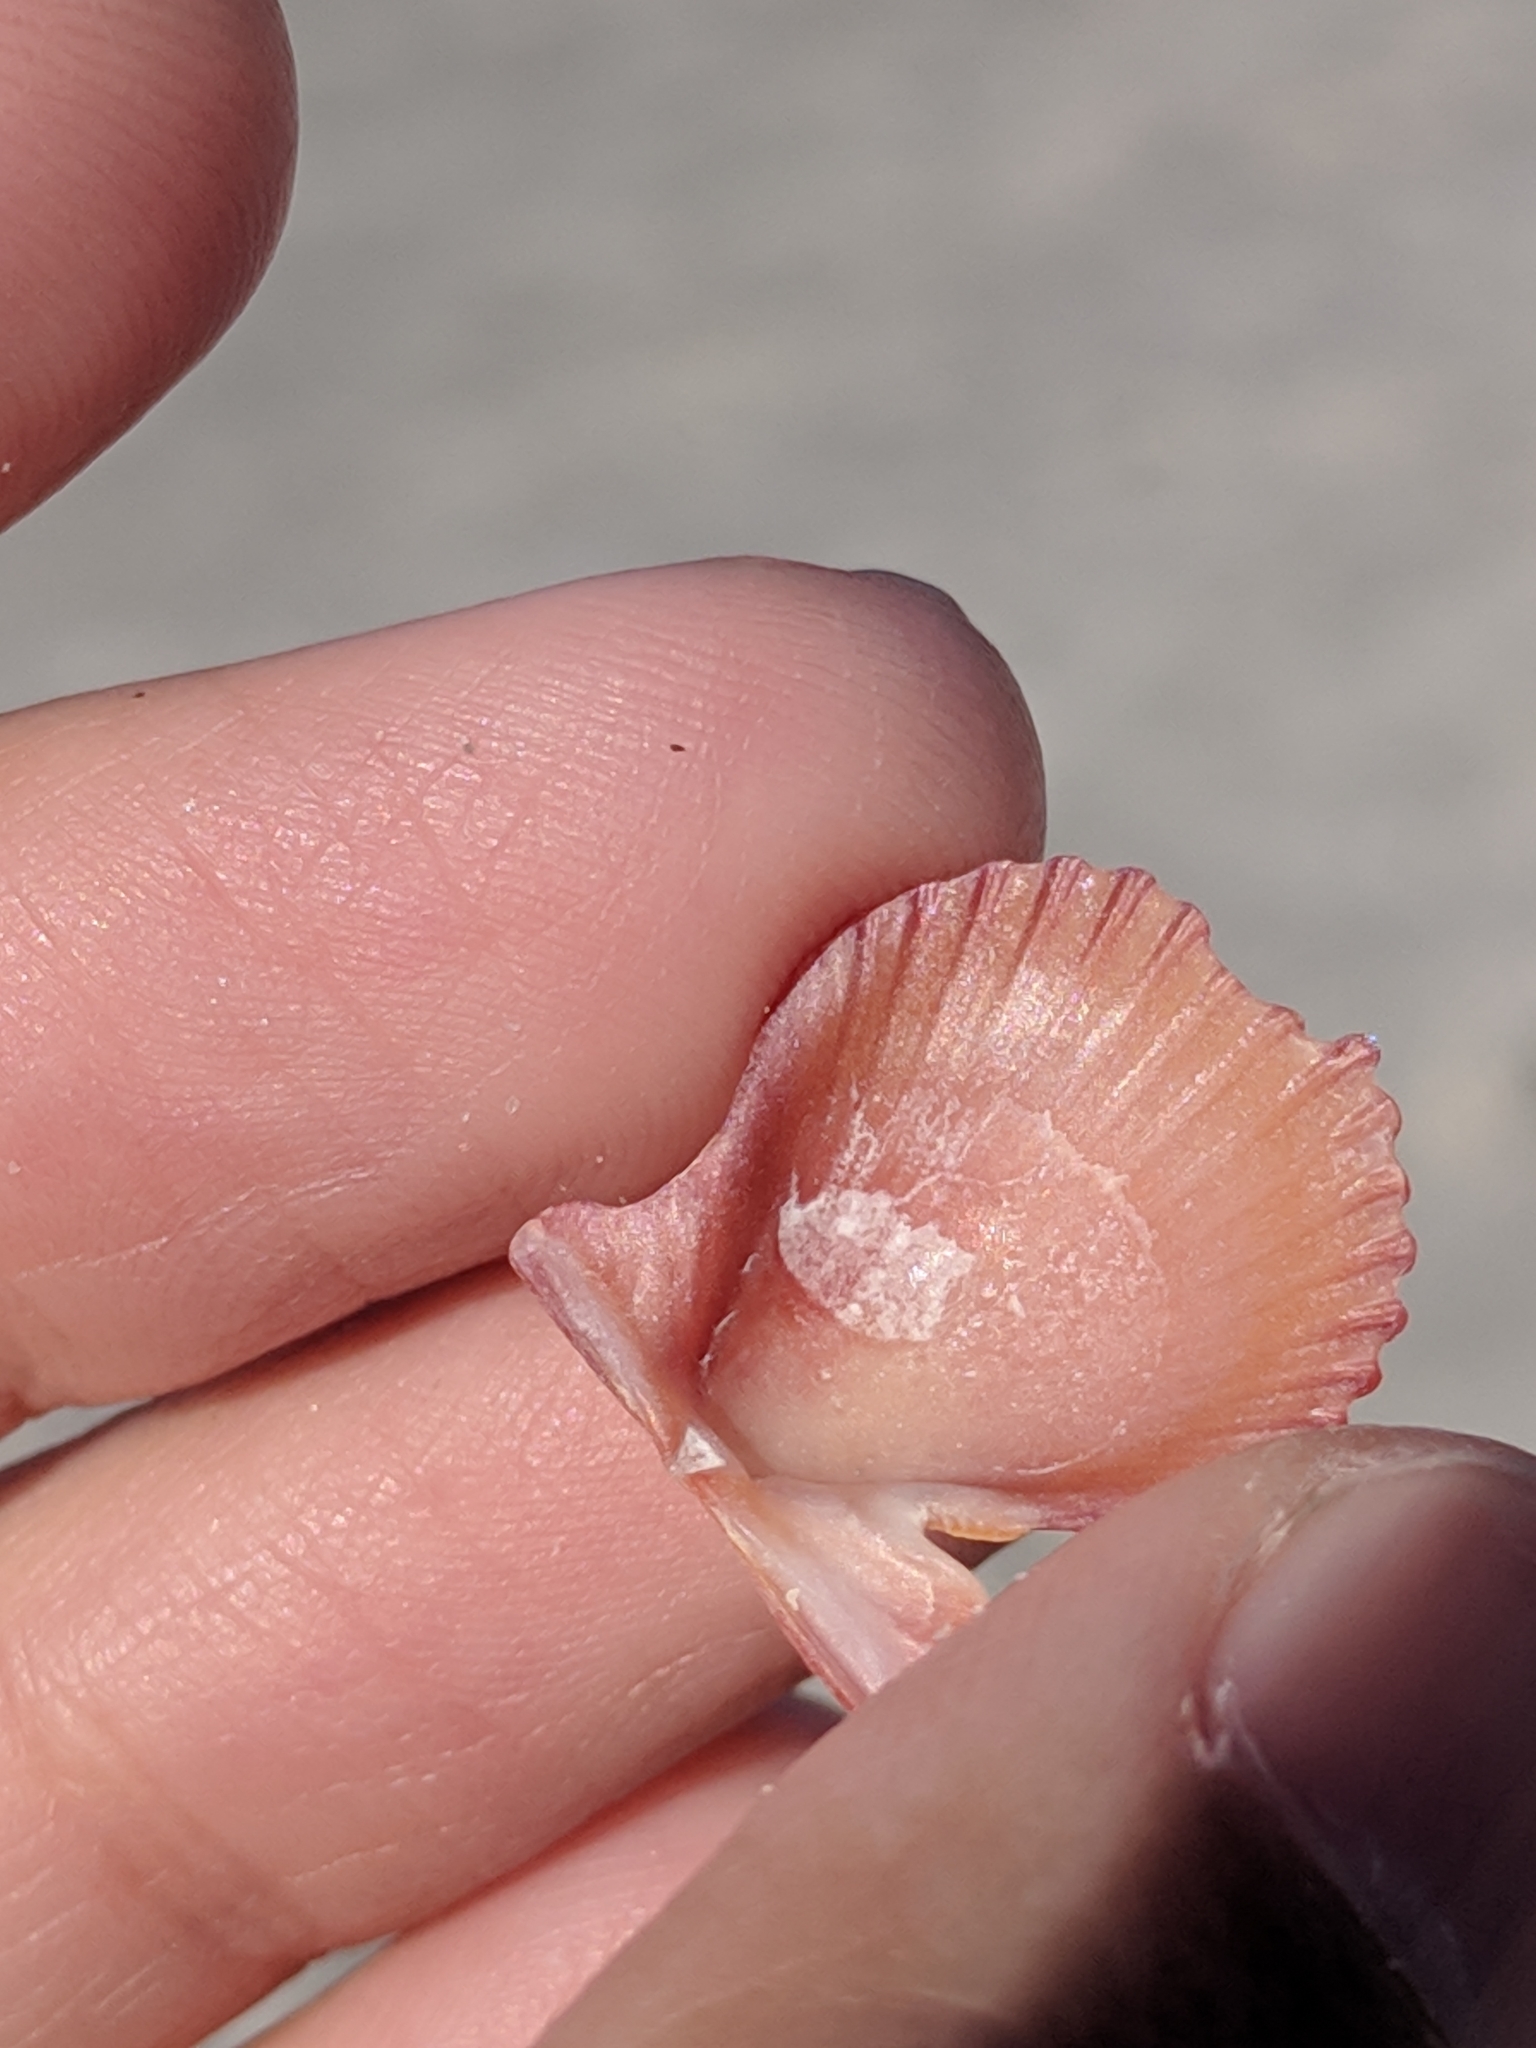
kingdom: Animalia
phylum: Mollusca
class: Bivalvia
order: Pectinida
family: Pectinidae
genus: Lindapecten
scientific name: Lindapecten muscosus
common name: Rough scallop
